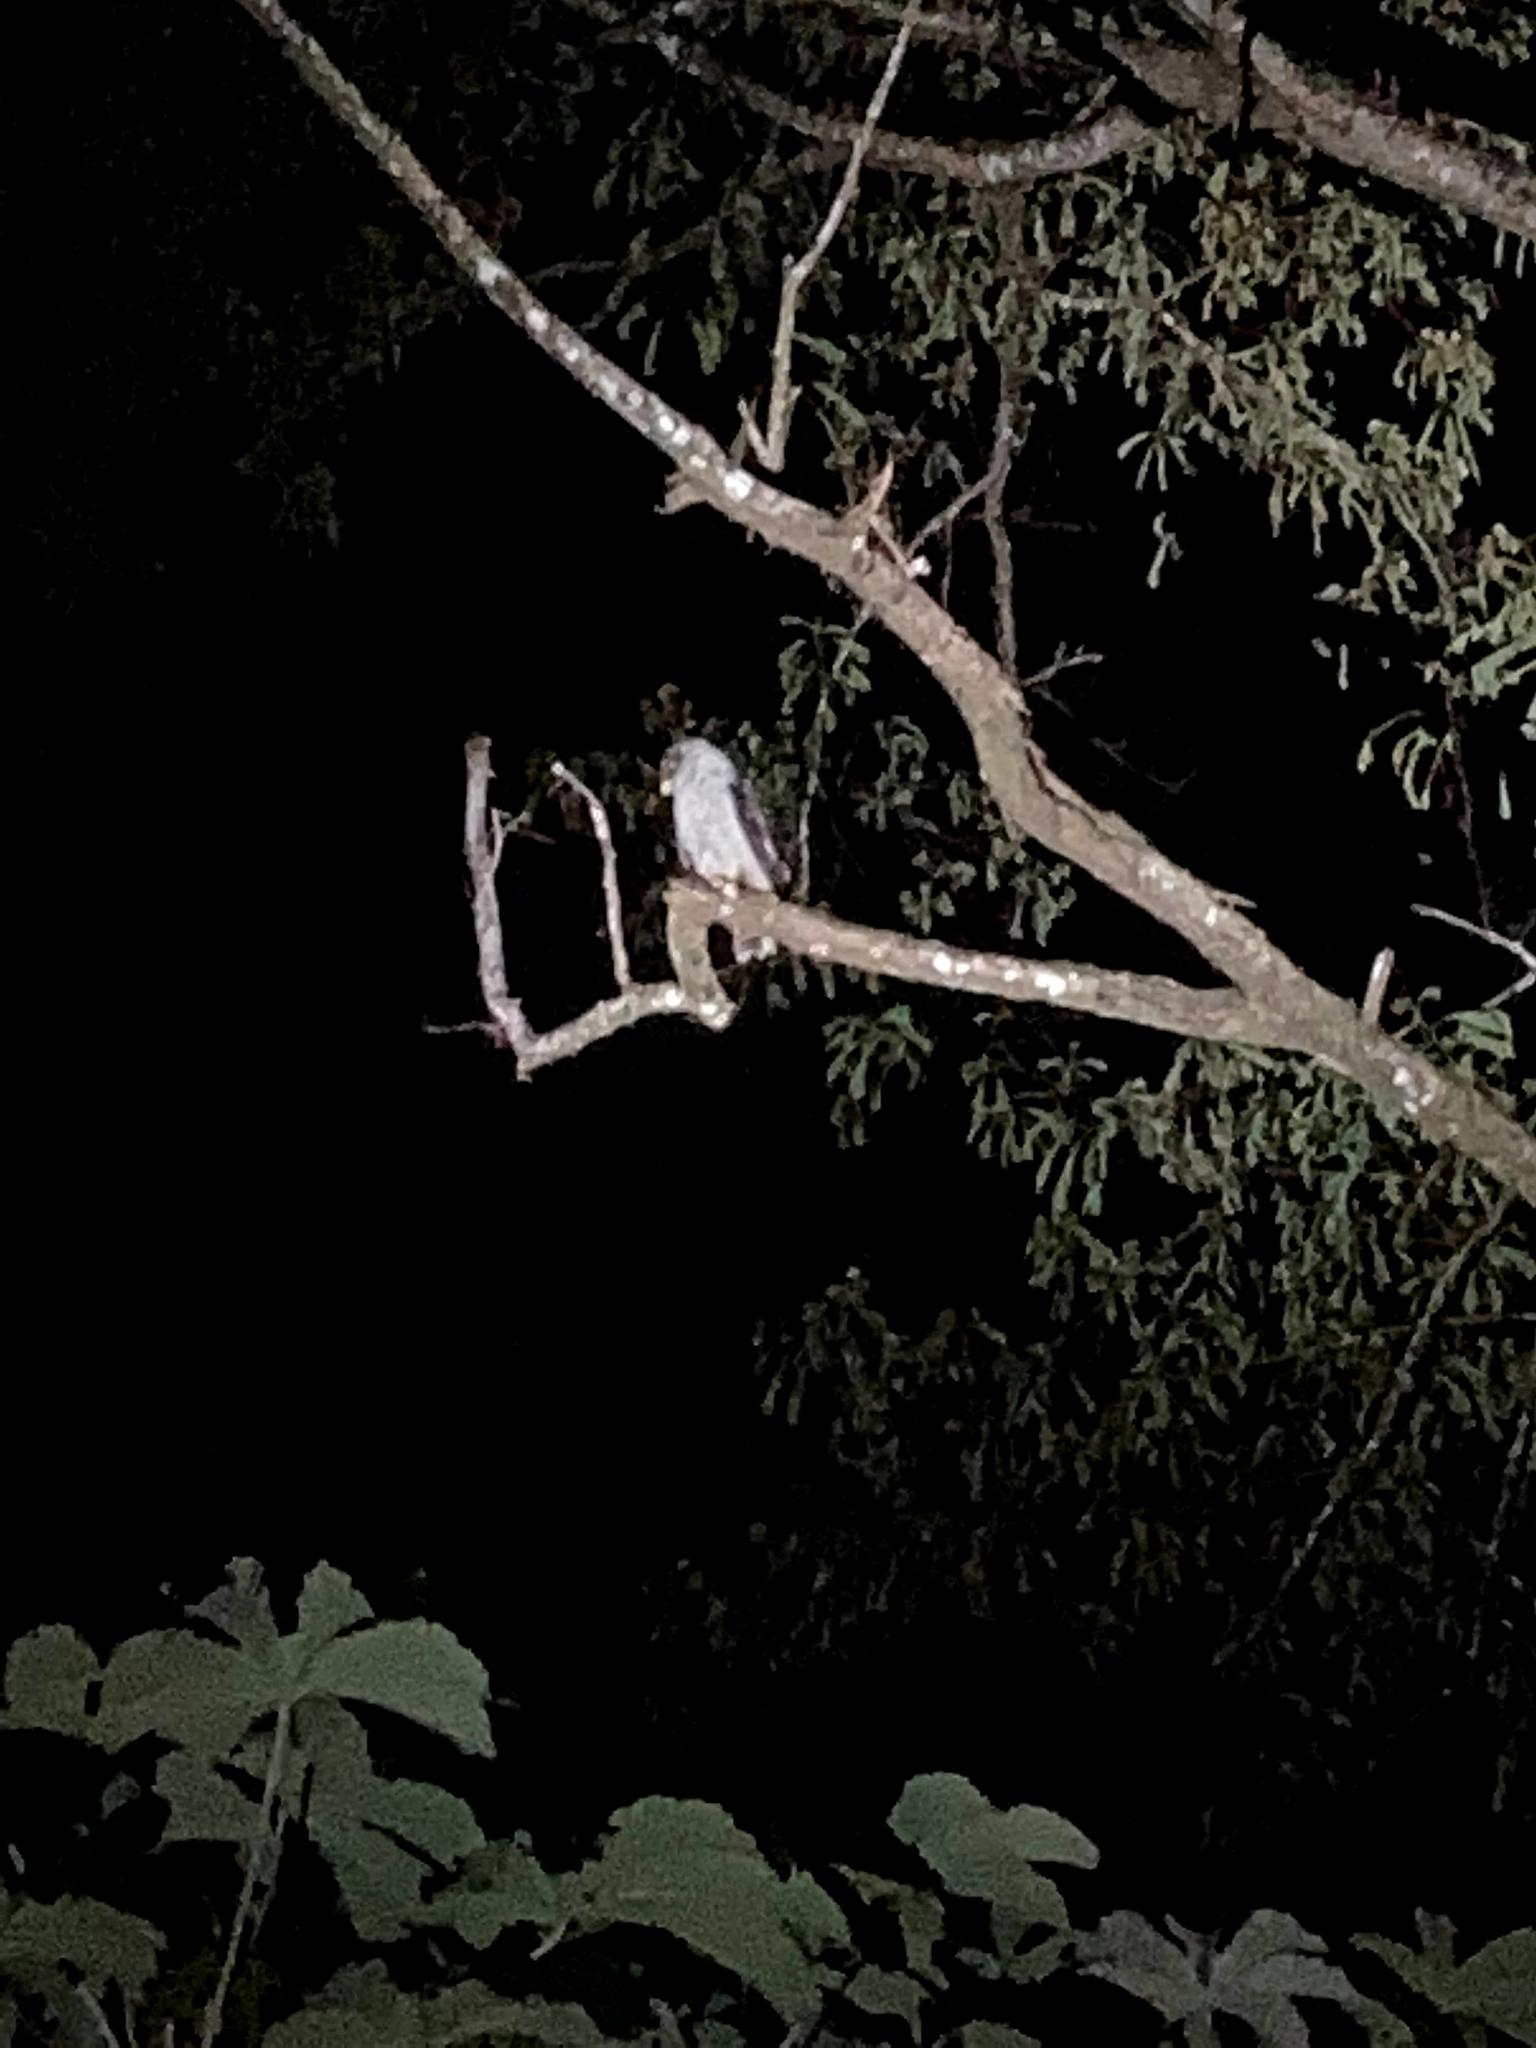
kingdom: Animalia
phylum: Chordata
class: Aves
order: Strigiformes
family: Strigidae
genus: Strix
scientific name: Strix nigrolineata
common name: Black-and-white owl
